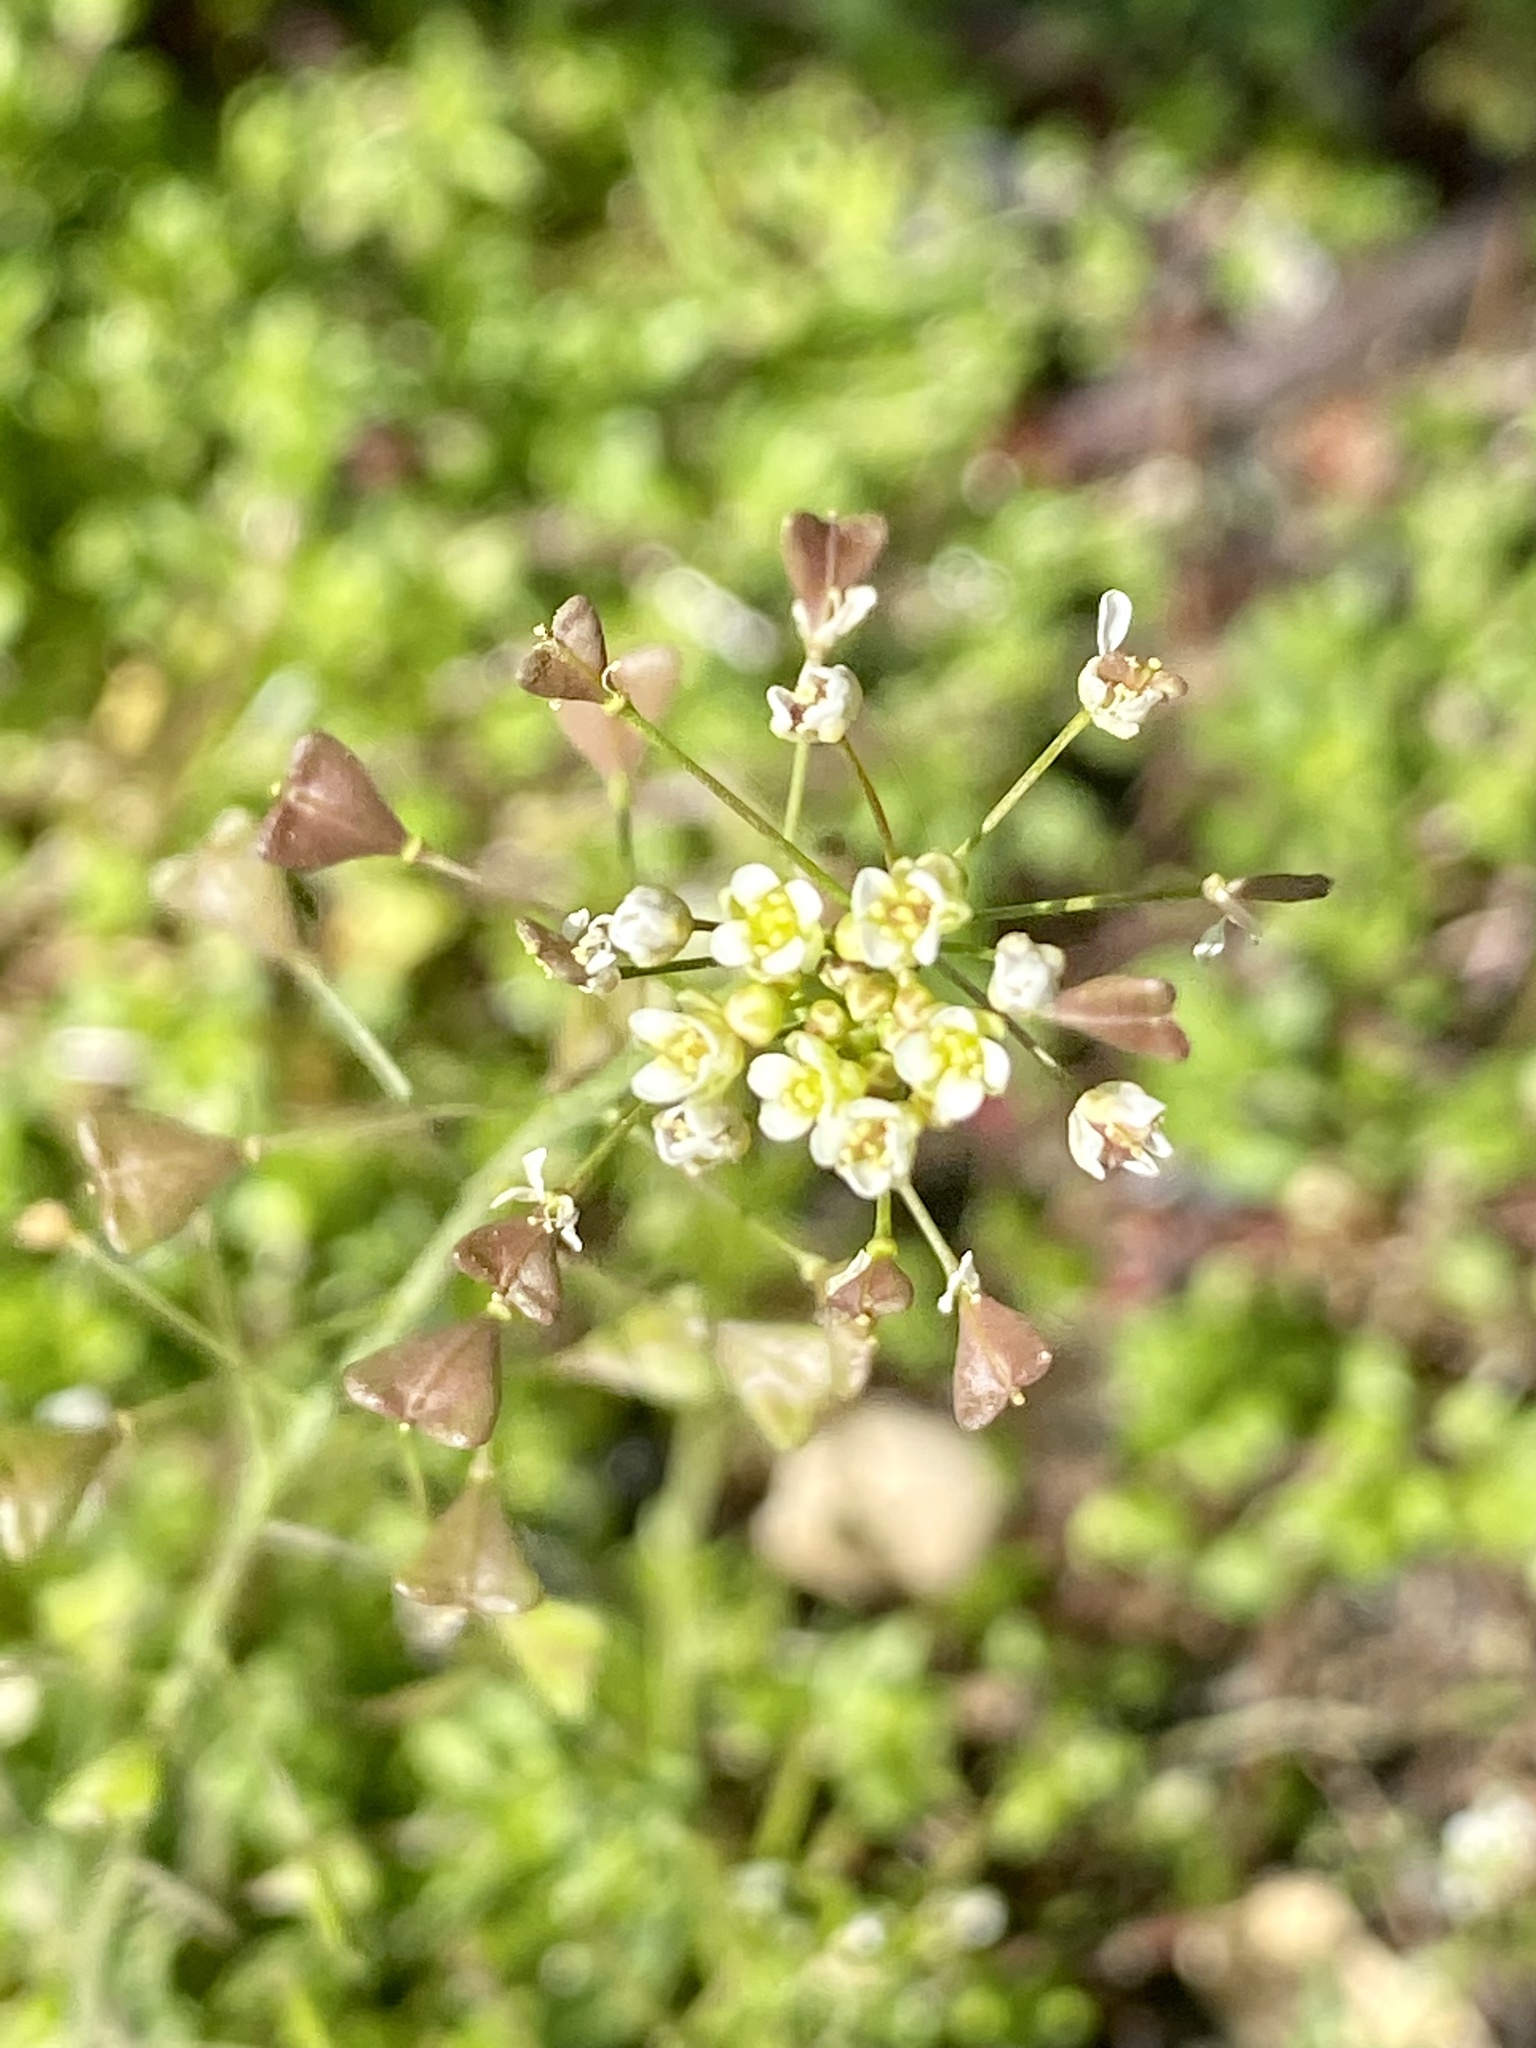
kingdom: Plantae
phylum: Tracheophyta
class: Magnoliopsida
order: Brassicales
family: Brassicaceae
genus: Capsella
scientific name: Capsella bursa-pastoris
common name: Shepherd's purse
